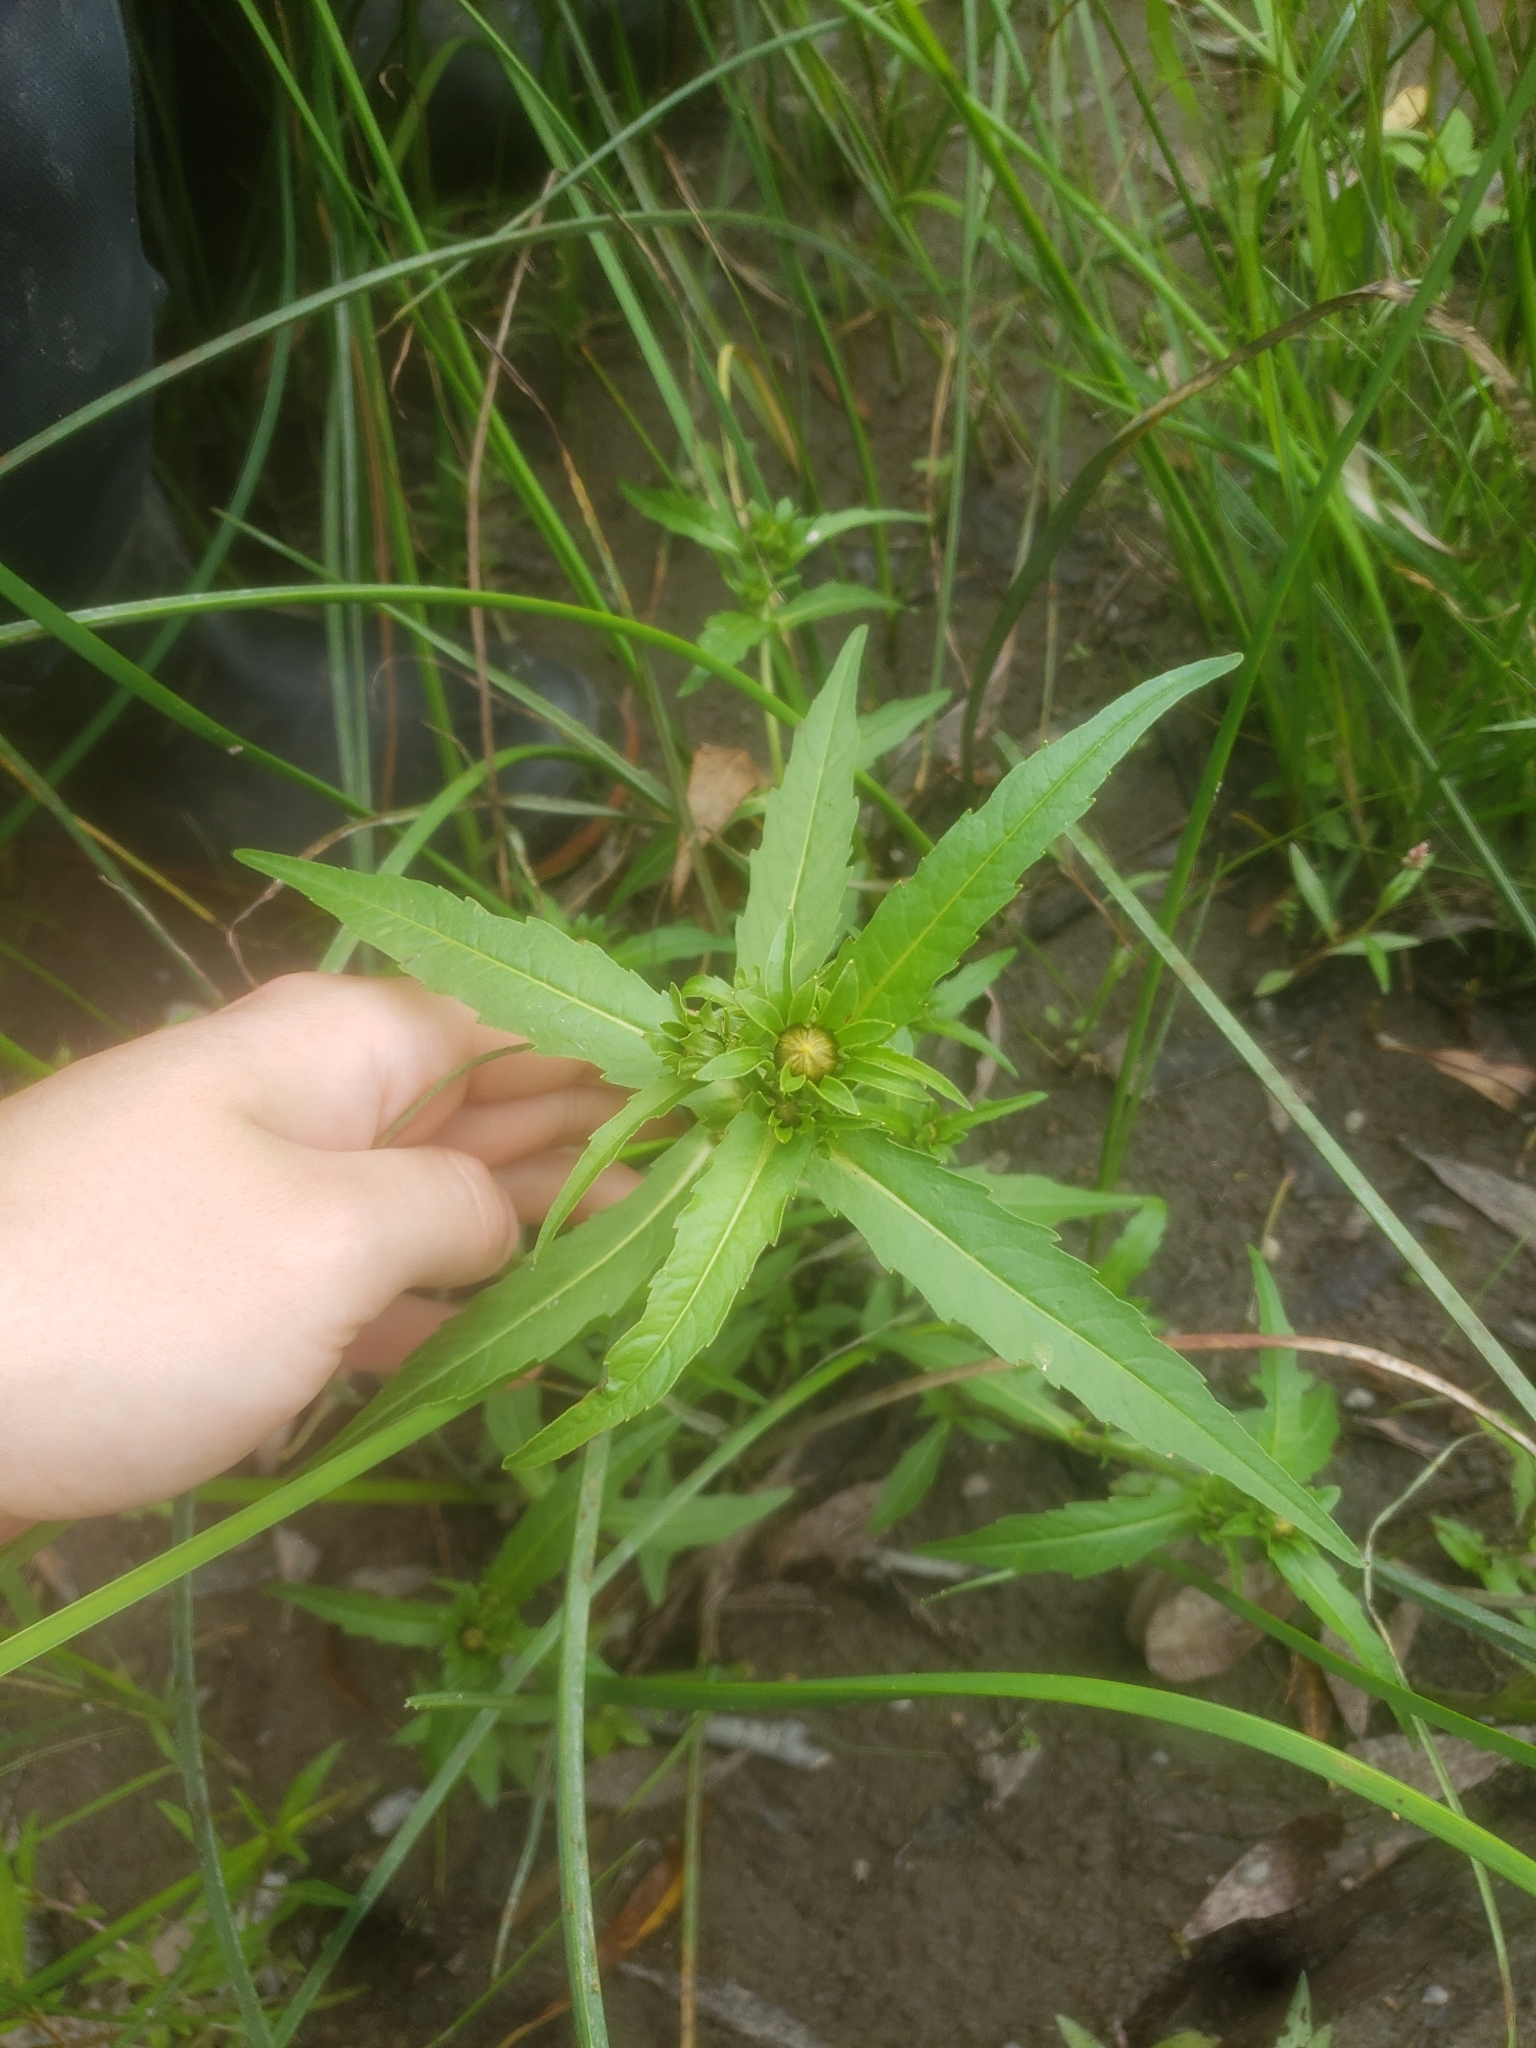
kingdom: Plantae
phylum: Tracheophyta
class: Magnoliopsida
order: Asterales
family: Asteraceae
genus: Bidens
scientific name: Bidens cernua
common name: Nodding bur-marigold
